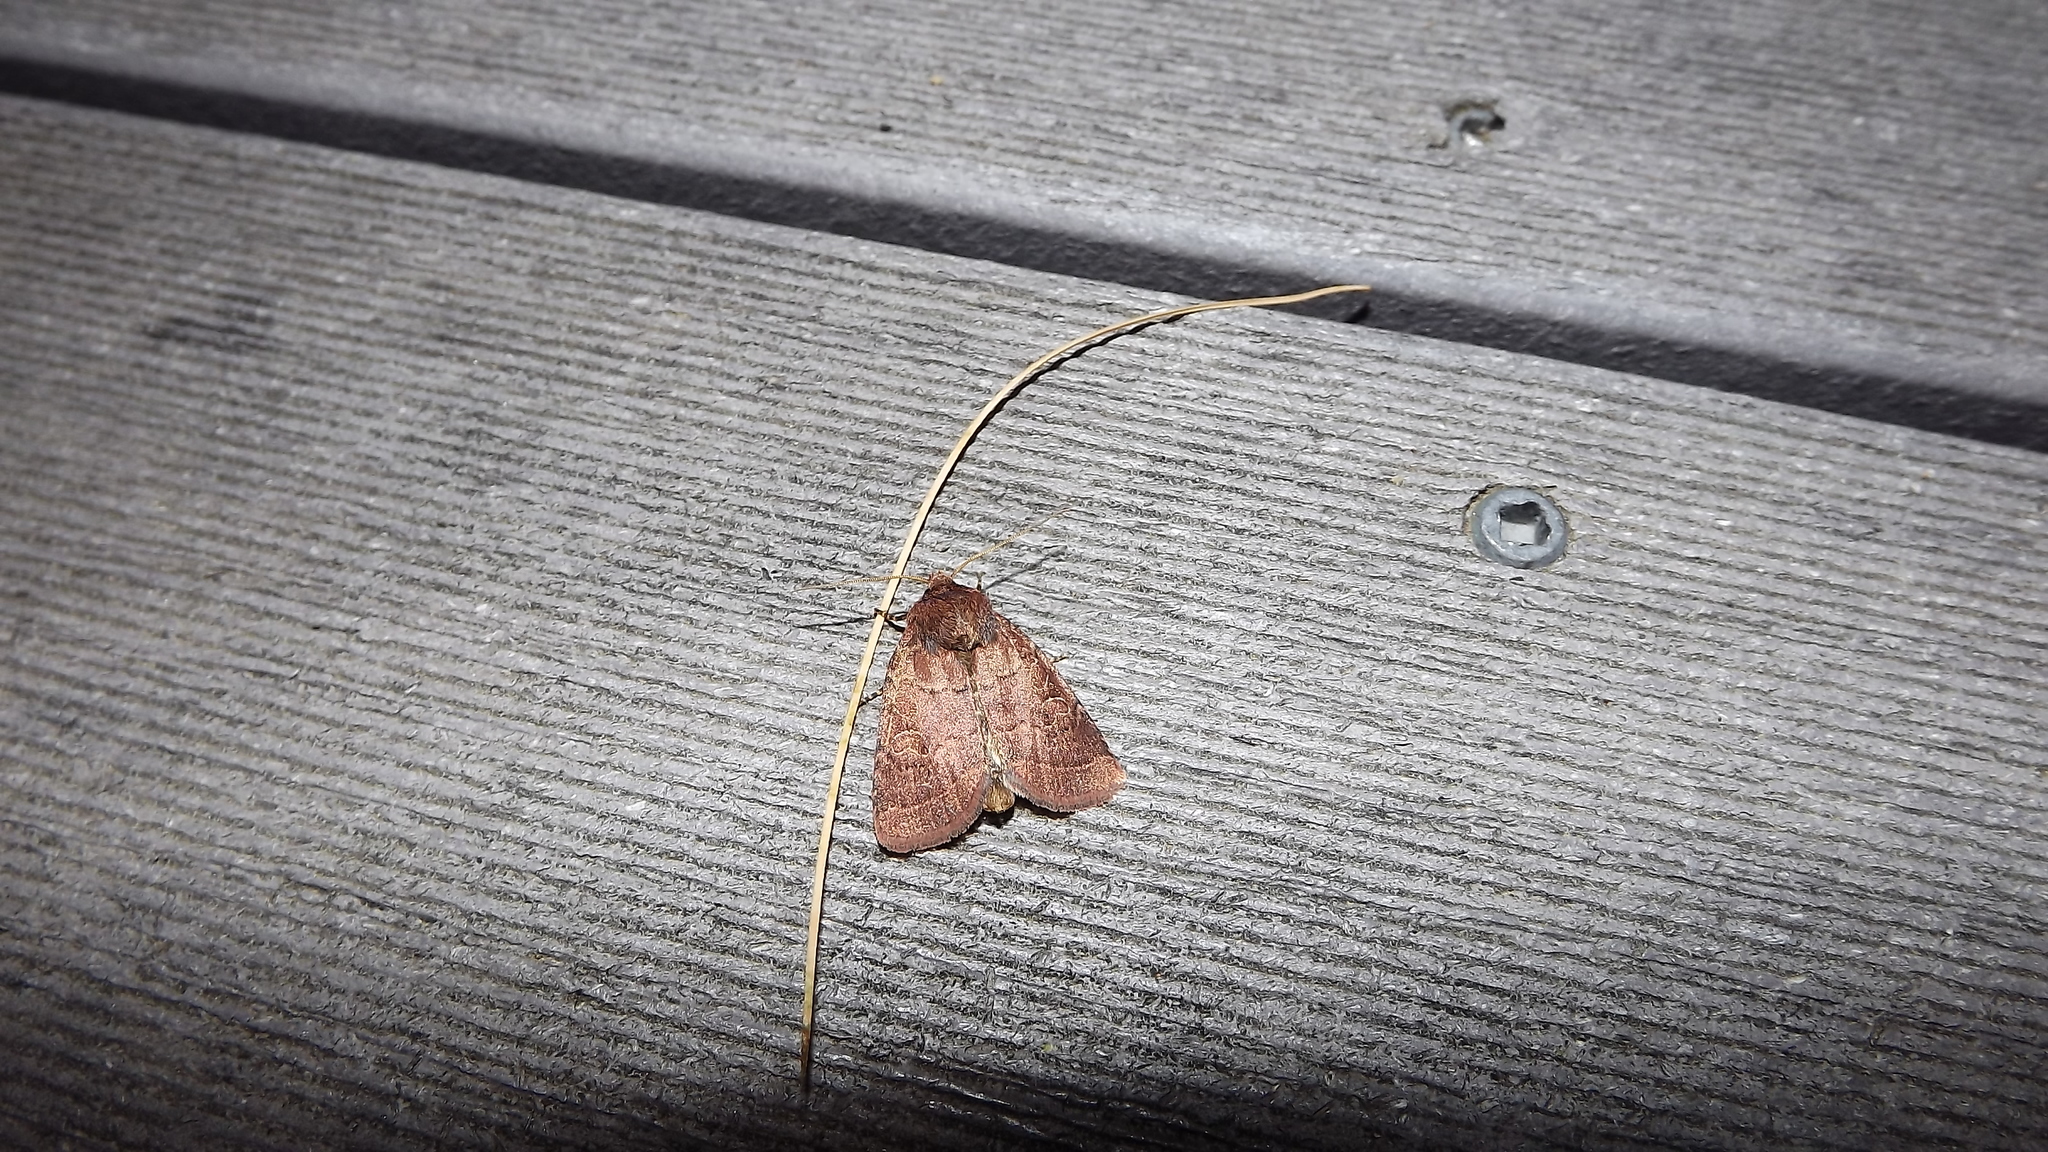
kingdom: Animalia
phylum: Arthropoda
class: Insecta
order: Lepidoptera
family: Noctuidae
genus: Orthodes
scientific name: Orthodes cynica
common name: Cynical quaker
